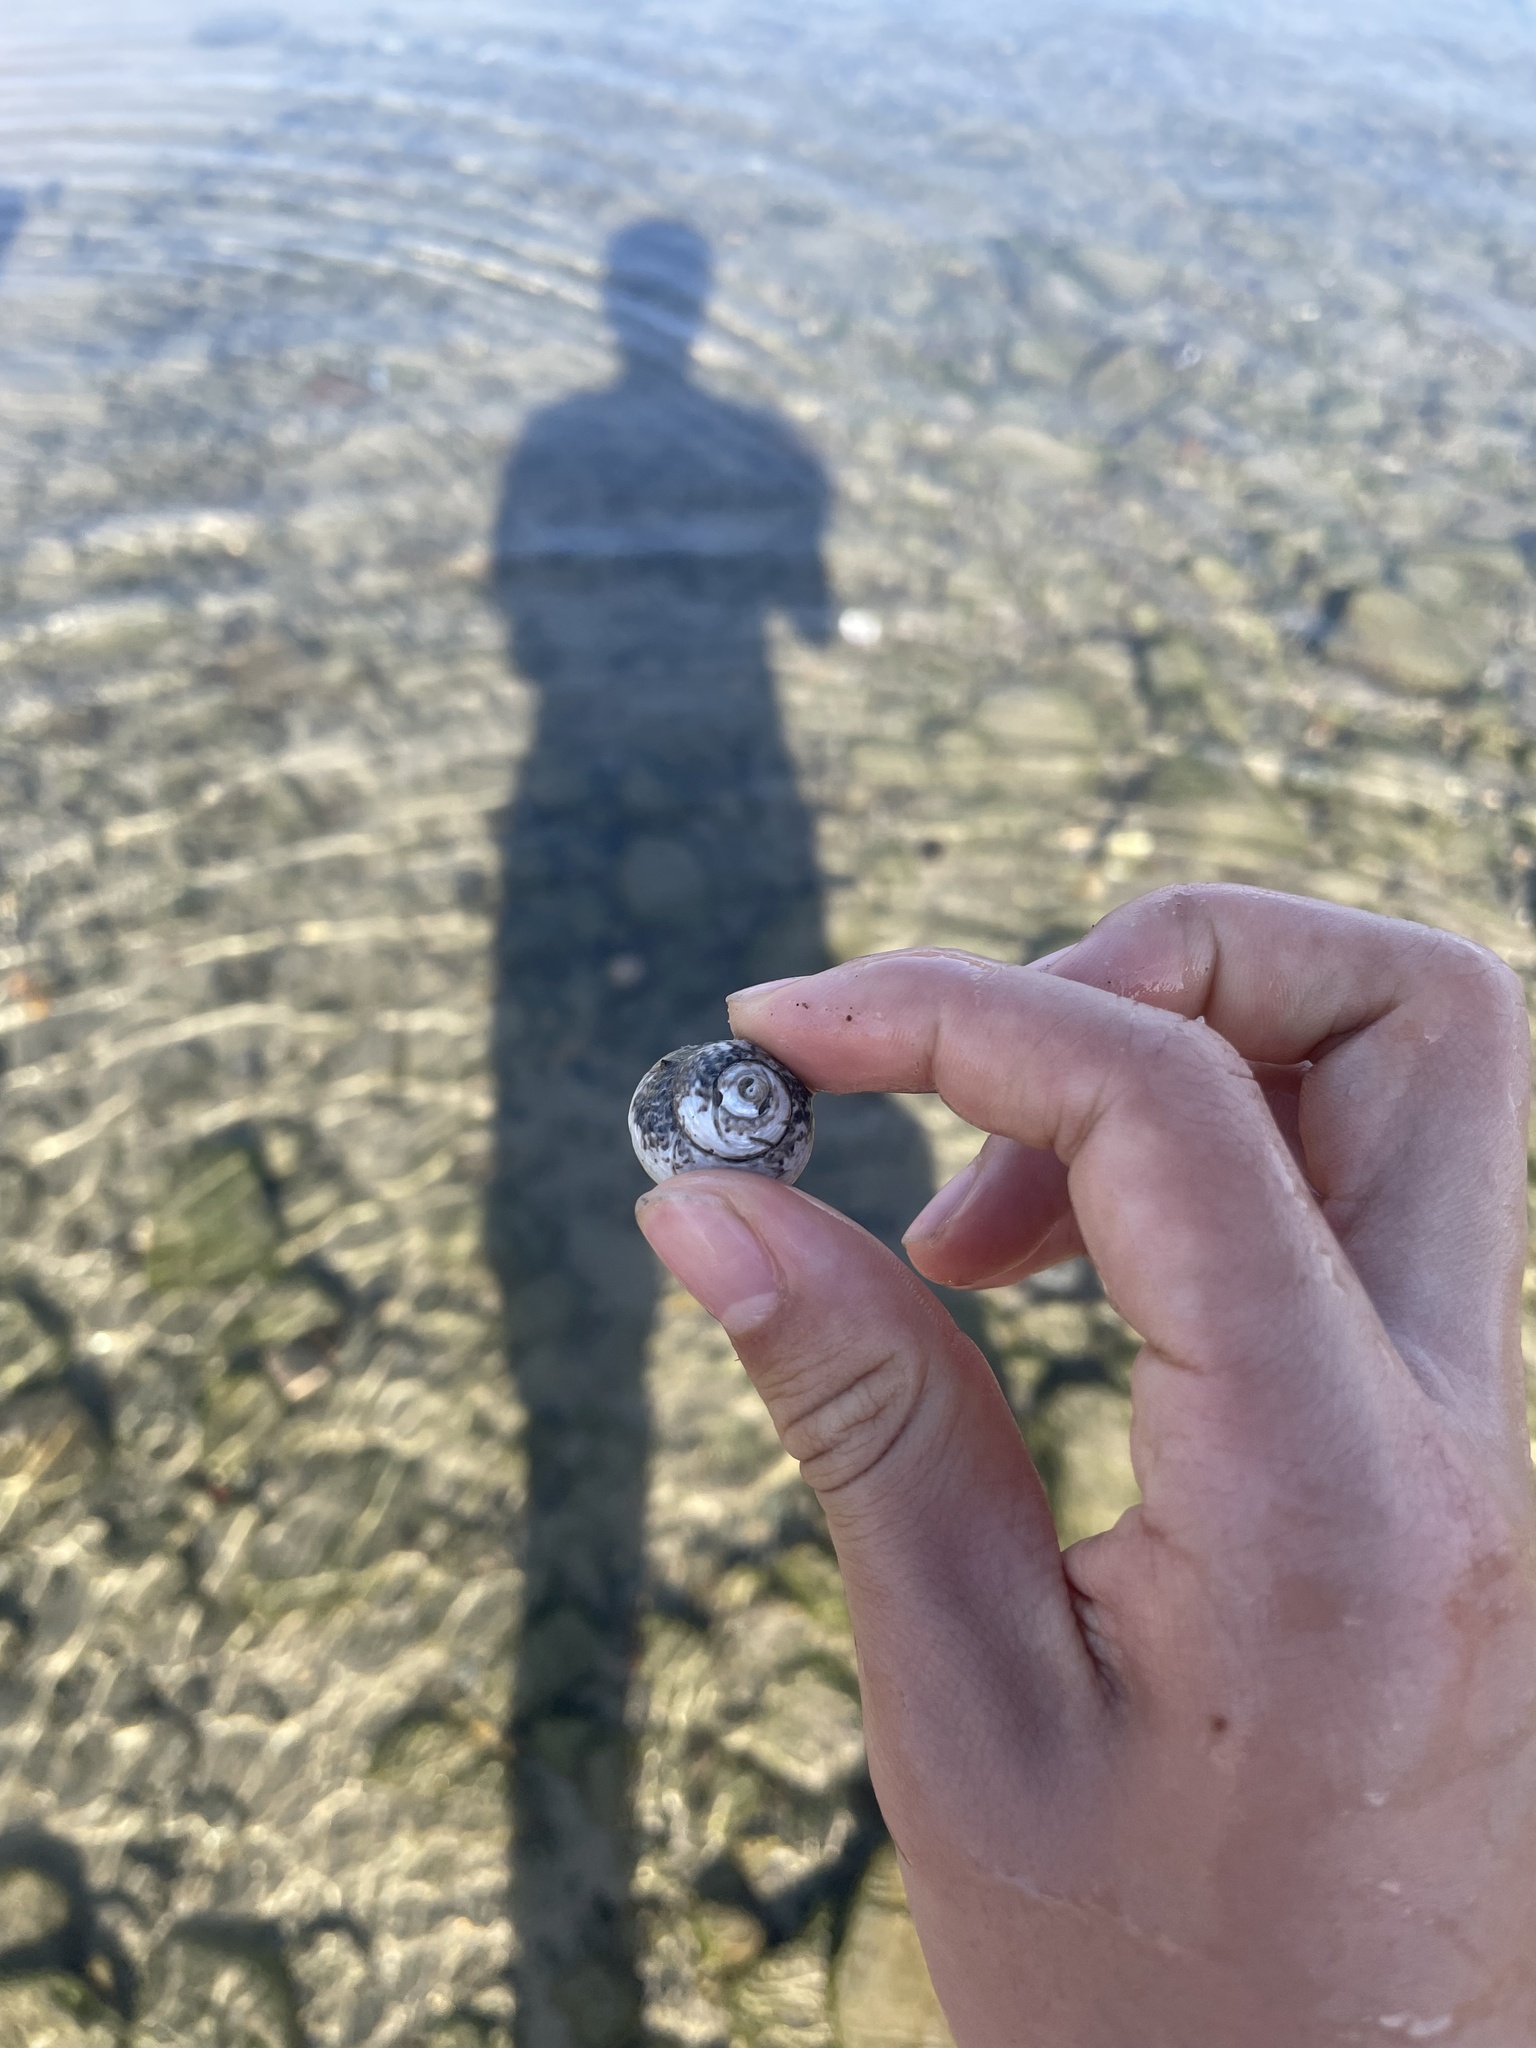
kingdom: Animalia
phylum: Mollusca
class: Gastropoda
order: Trochida
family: Tegulidae
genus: Tegula
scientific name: Tegula eiseni
